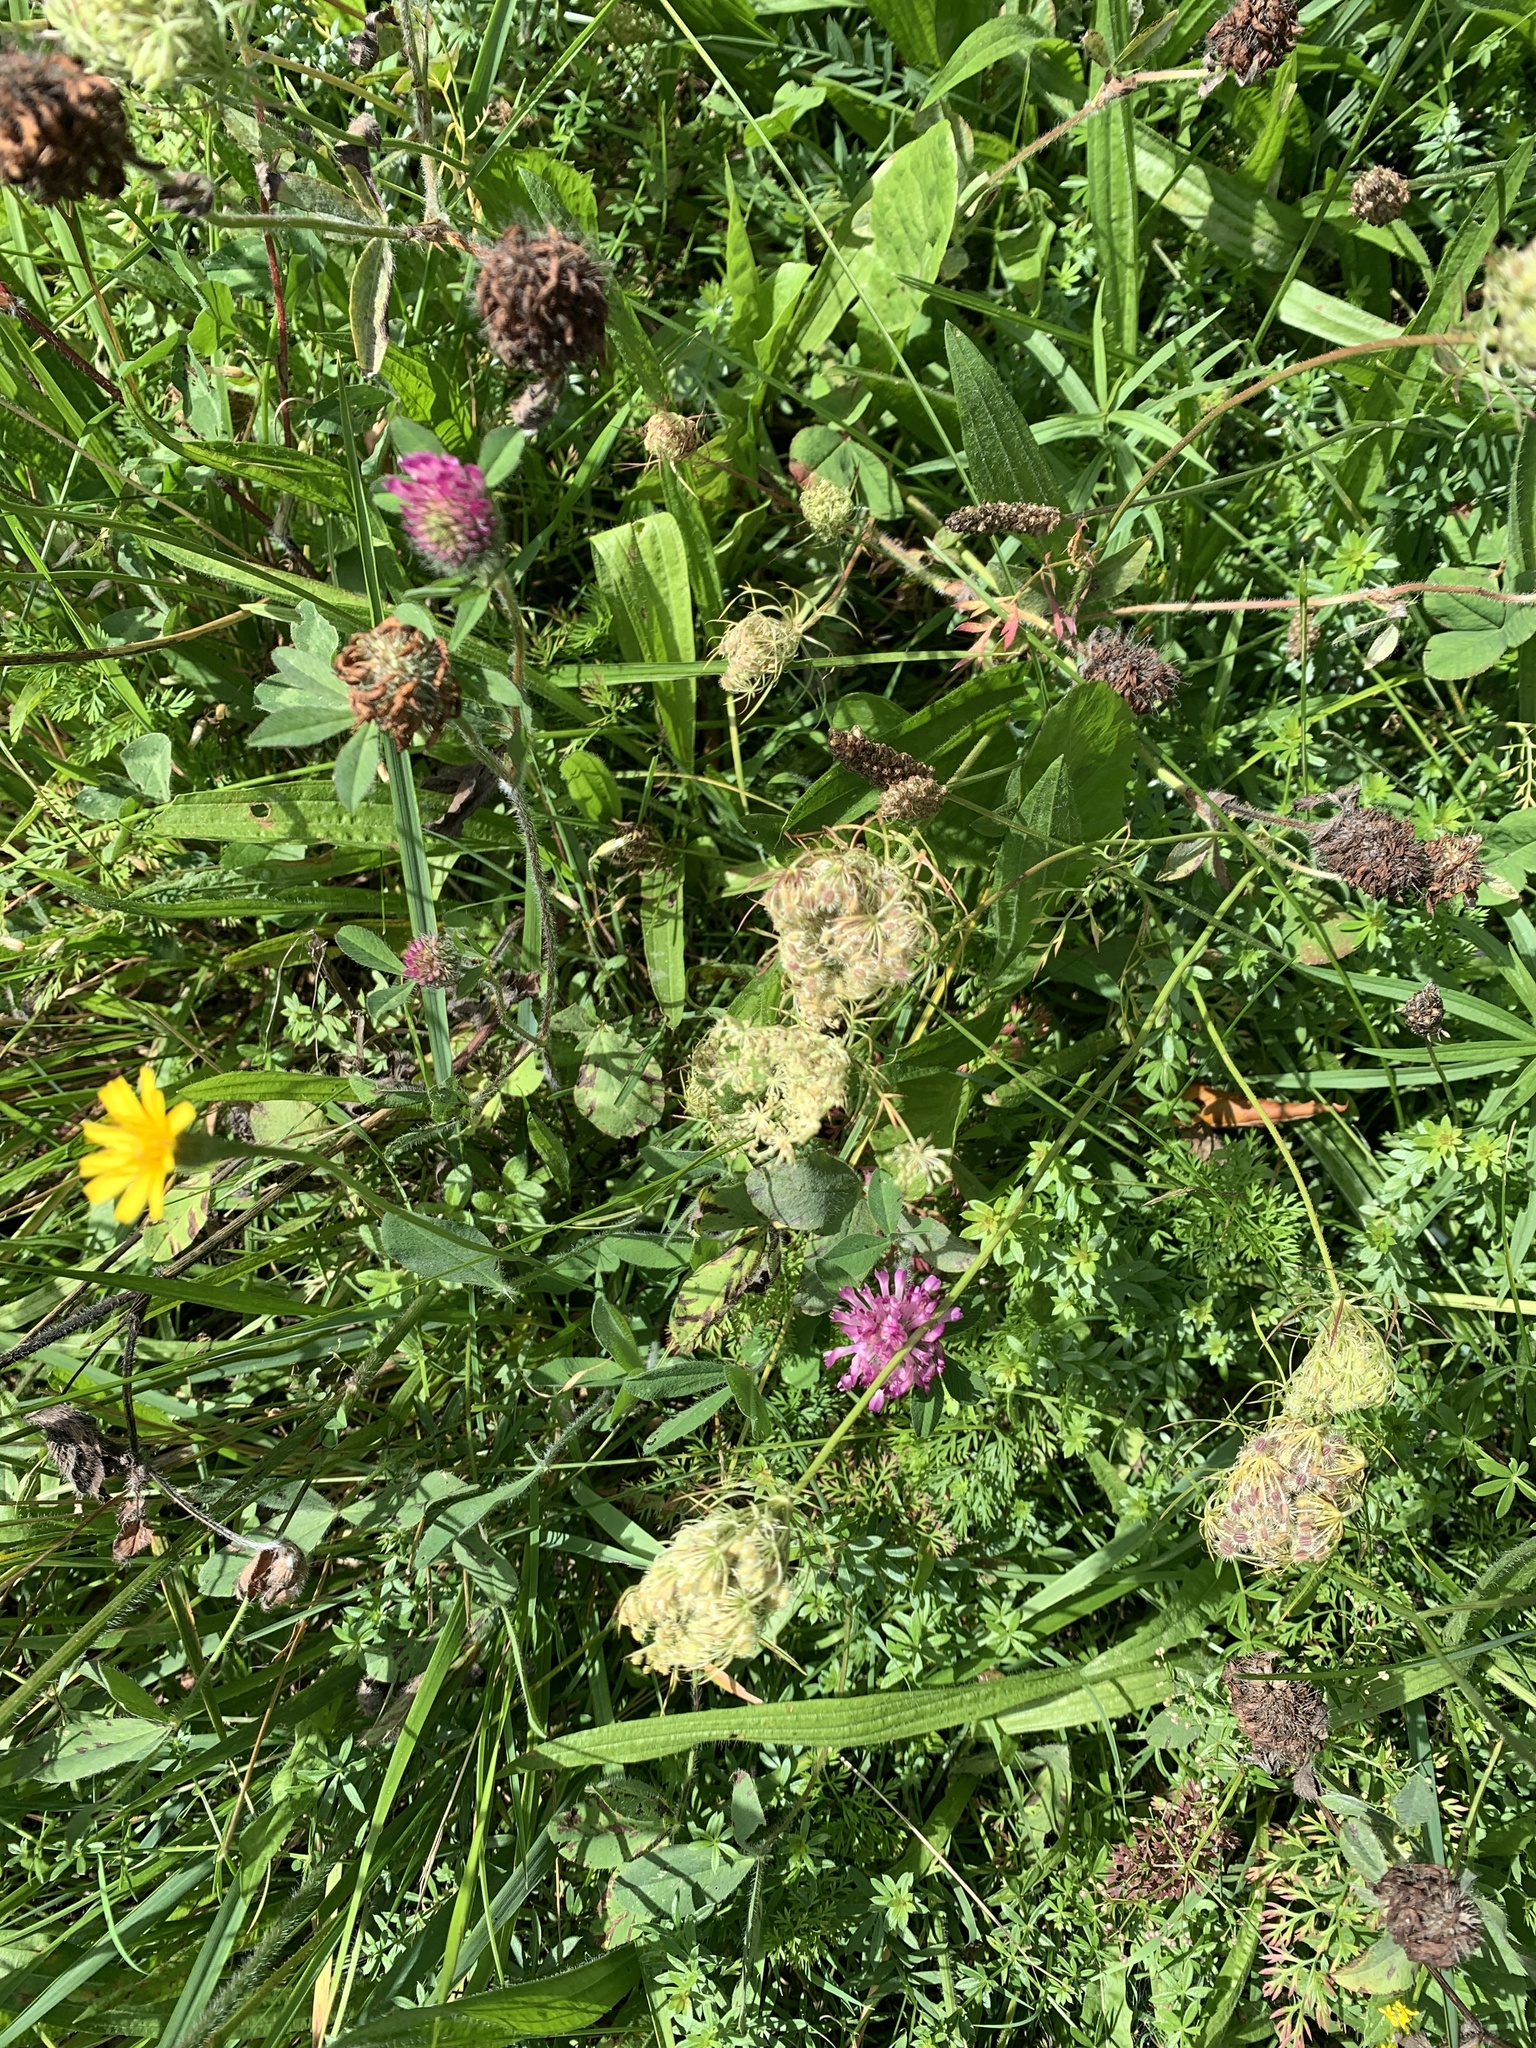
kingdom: Plantae
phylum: Tracheophyta
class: Magnoliopsida
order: Fabales
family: Fabaceae
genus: Trifolium
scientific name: Trifolium pratense
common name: Red clover
